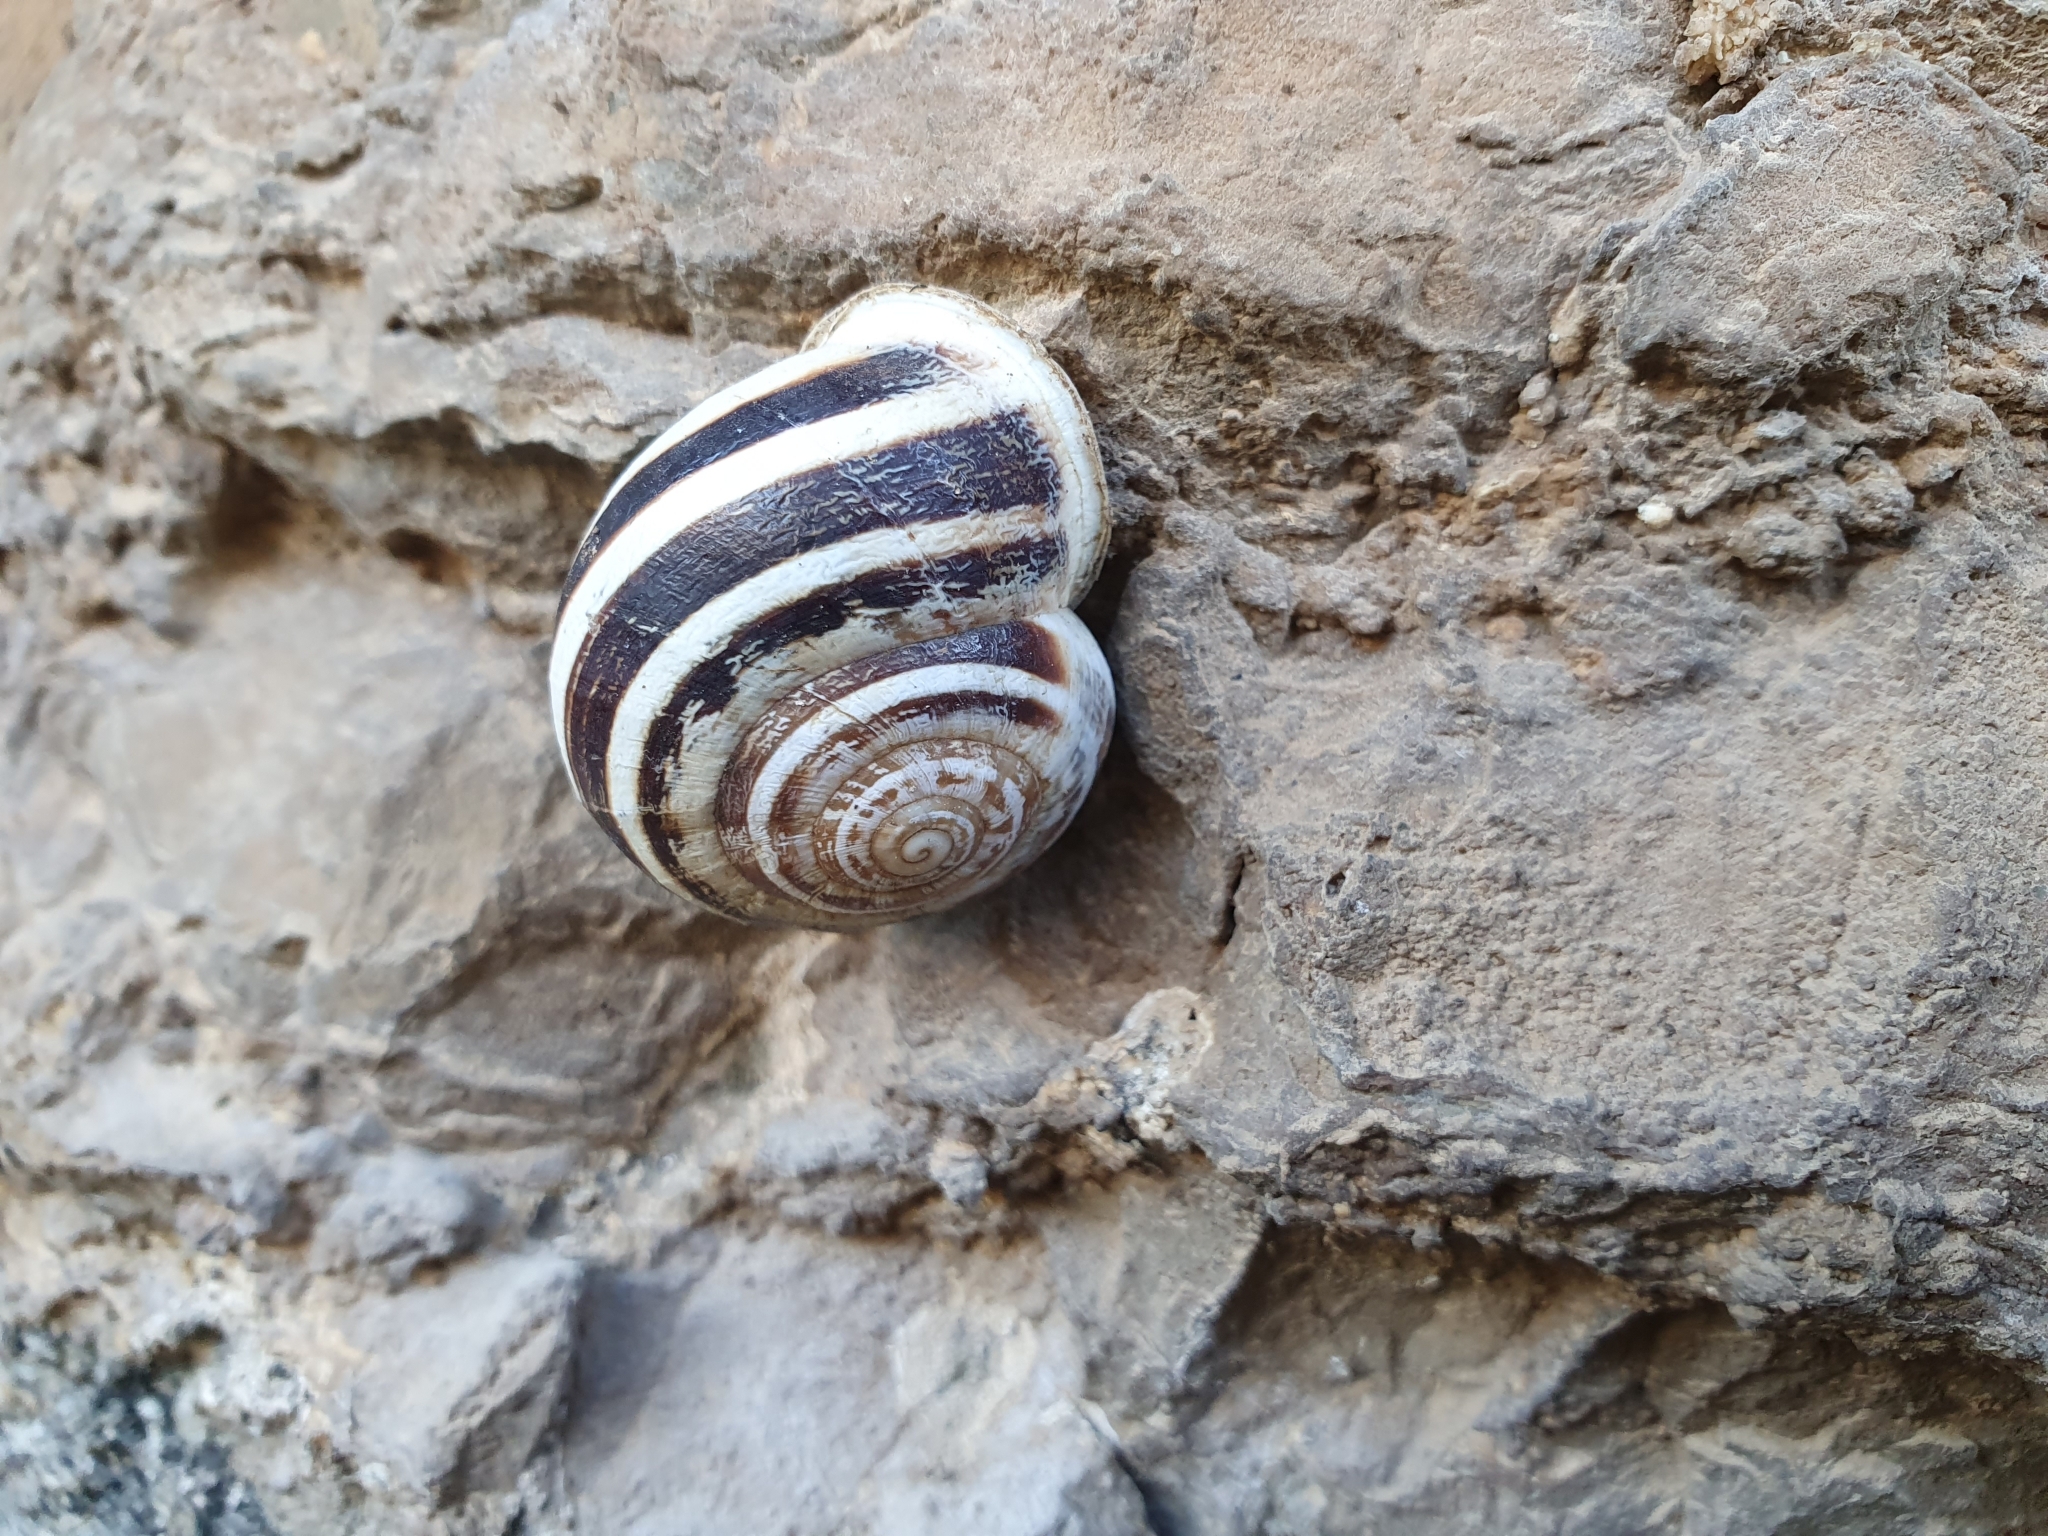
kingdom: Animalia
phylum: Mollusca
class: Gastropoda
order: Stylommatophora
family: Helicidae
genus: Eobania
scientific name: Eobania vermiculata
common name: Chocolateband snail
